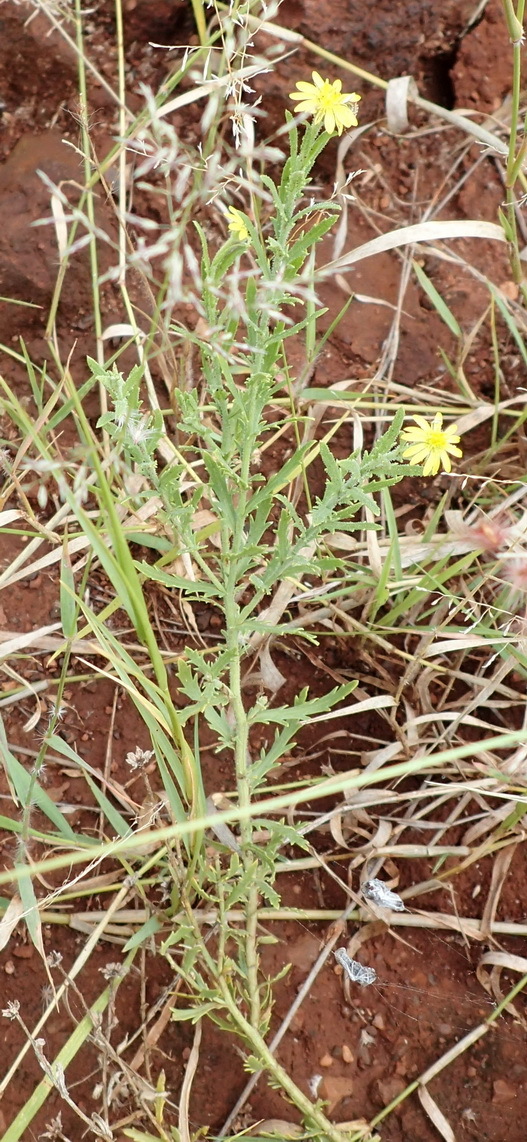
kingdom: Plantae
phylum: Tracheophyta
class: Magnoliopsida
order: Asterales
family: Asteraceae
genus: Osteospermum
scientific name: Osteospermum muricatum
